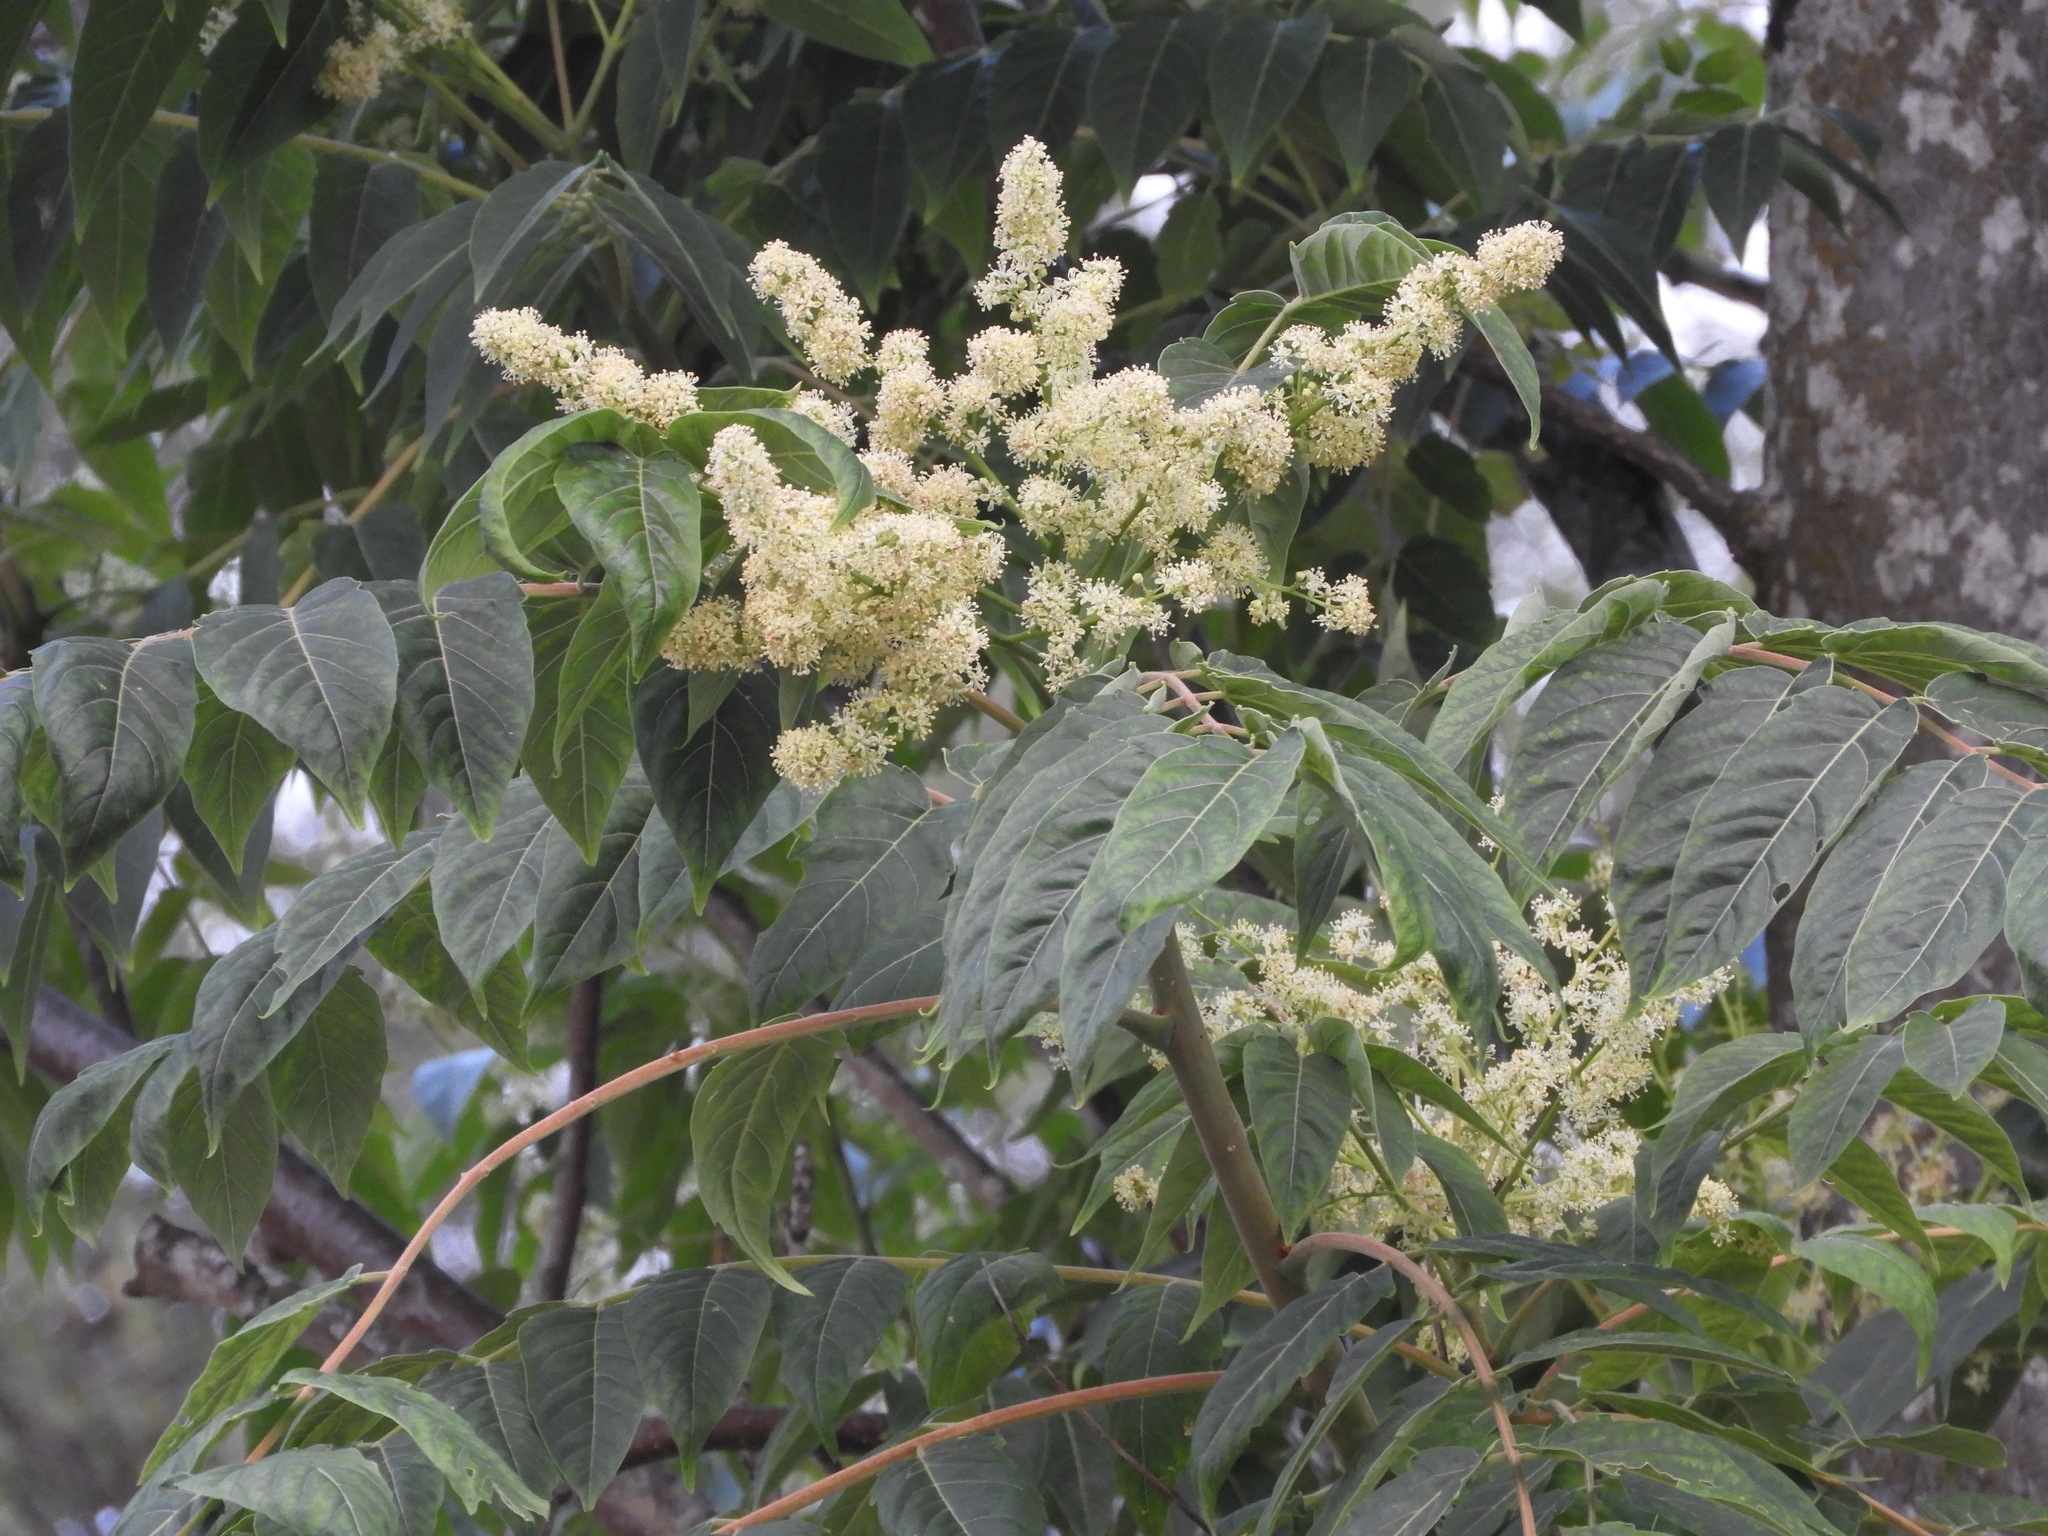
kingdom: Plantae
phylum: Tracheophyta
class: Magnoliopsida
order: Sapindales
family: Simaroubaceae
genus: Ailanthus
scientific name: Ailanthus altissima
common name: Tree-of-heaven
